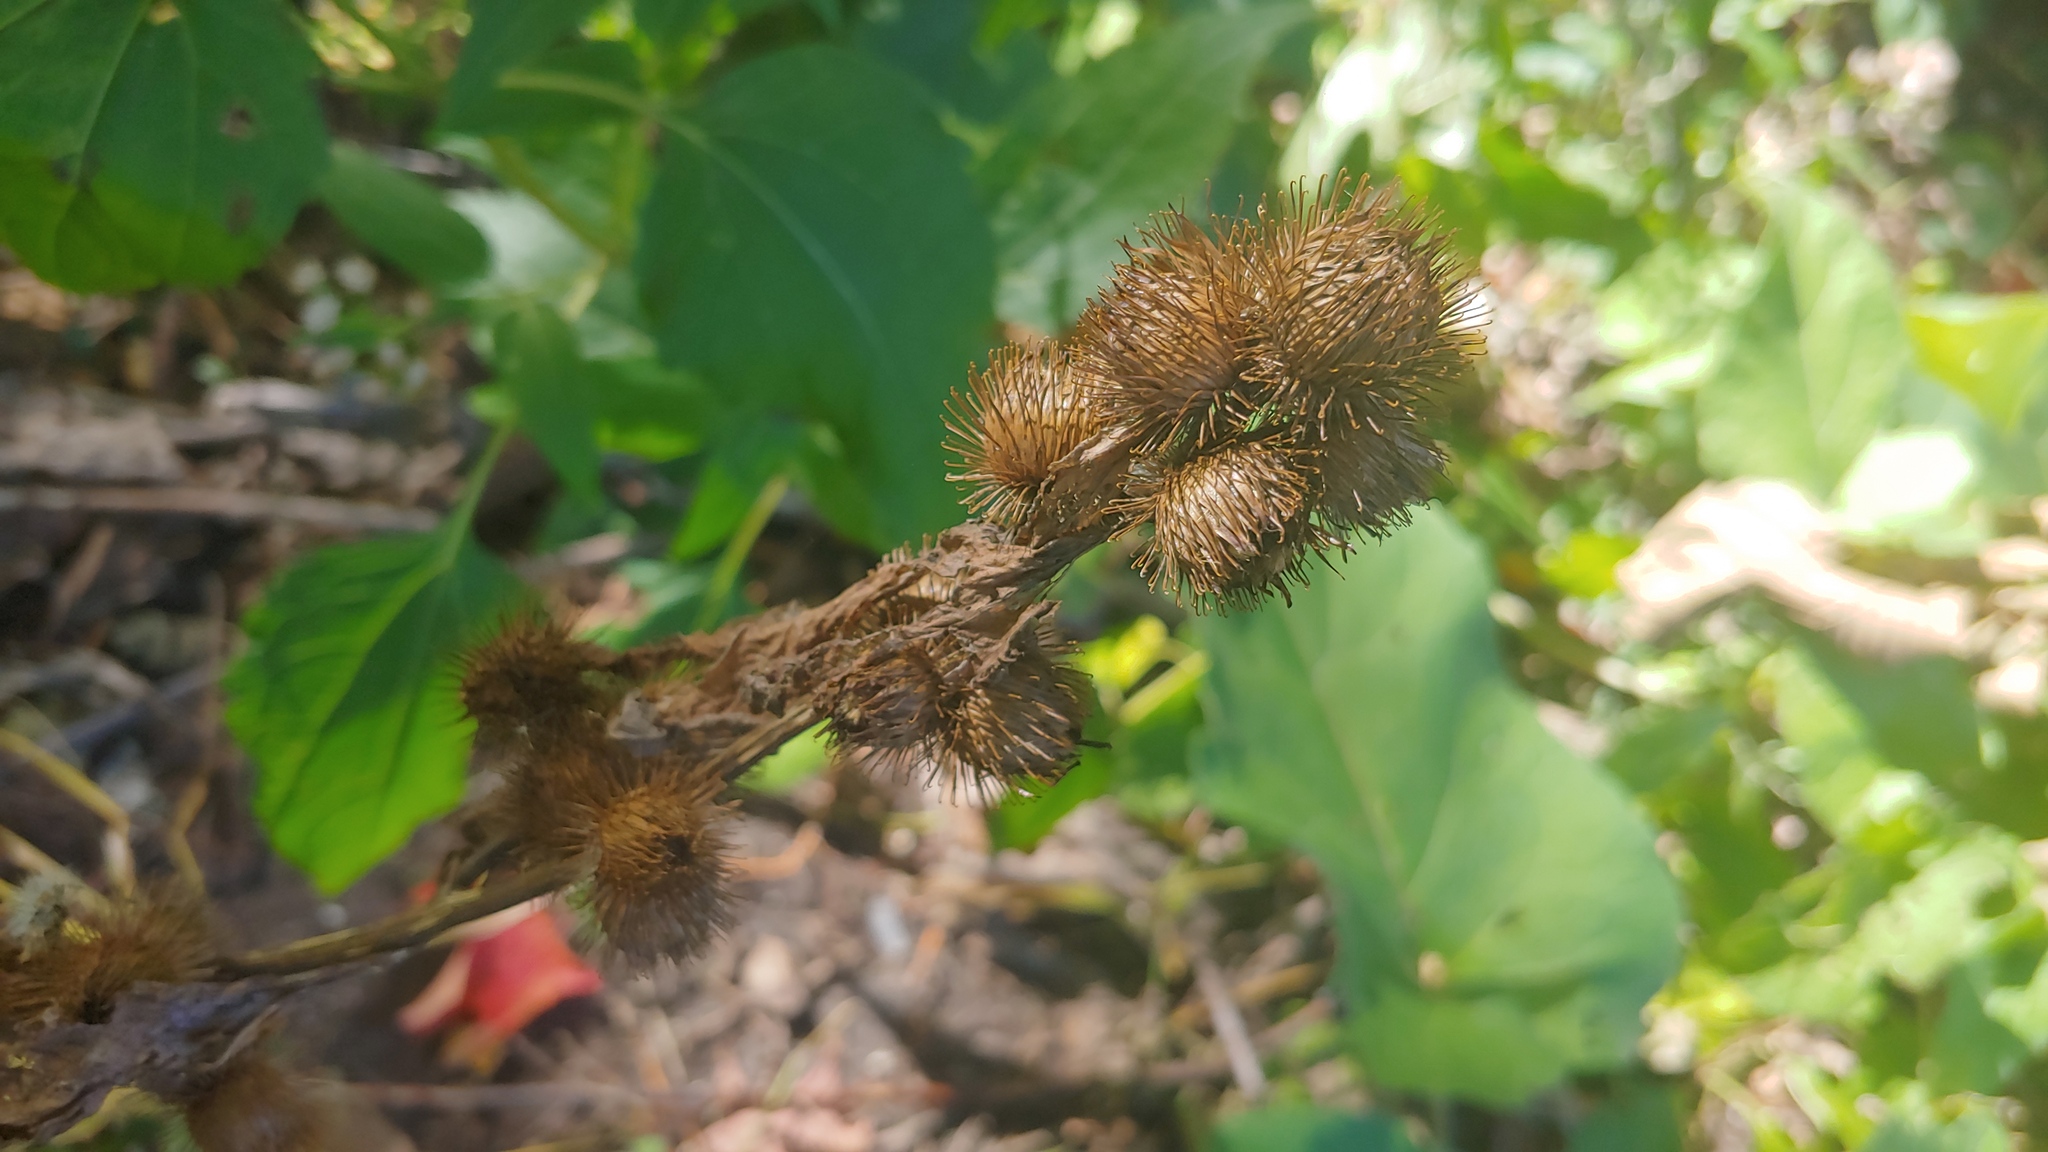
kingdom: Plantae
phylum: Tracheophyta
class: Magnoliopsida
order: Asterales
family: Asteraceae
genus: Arctium
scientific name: Arctium minus
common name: Lesser burdock
